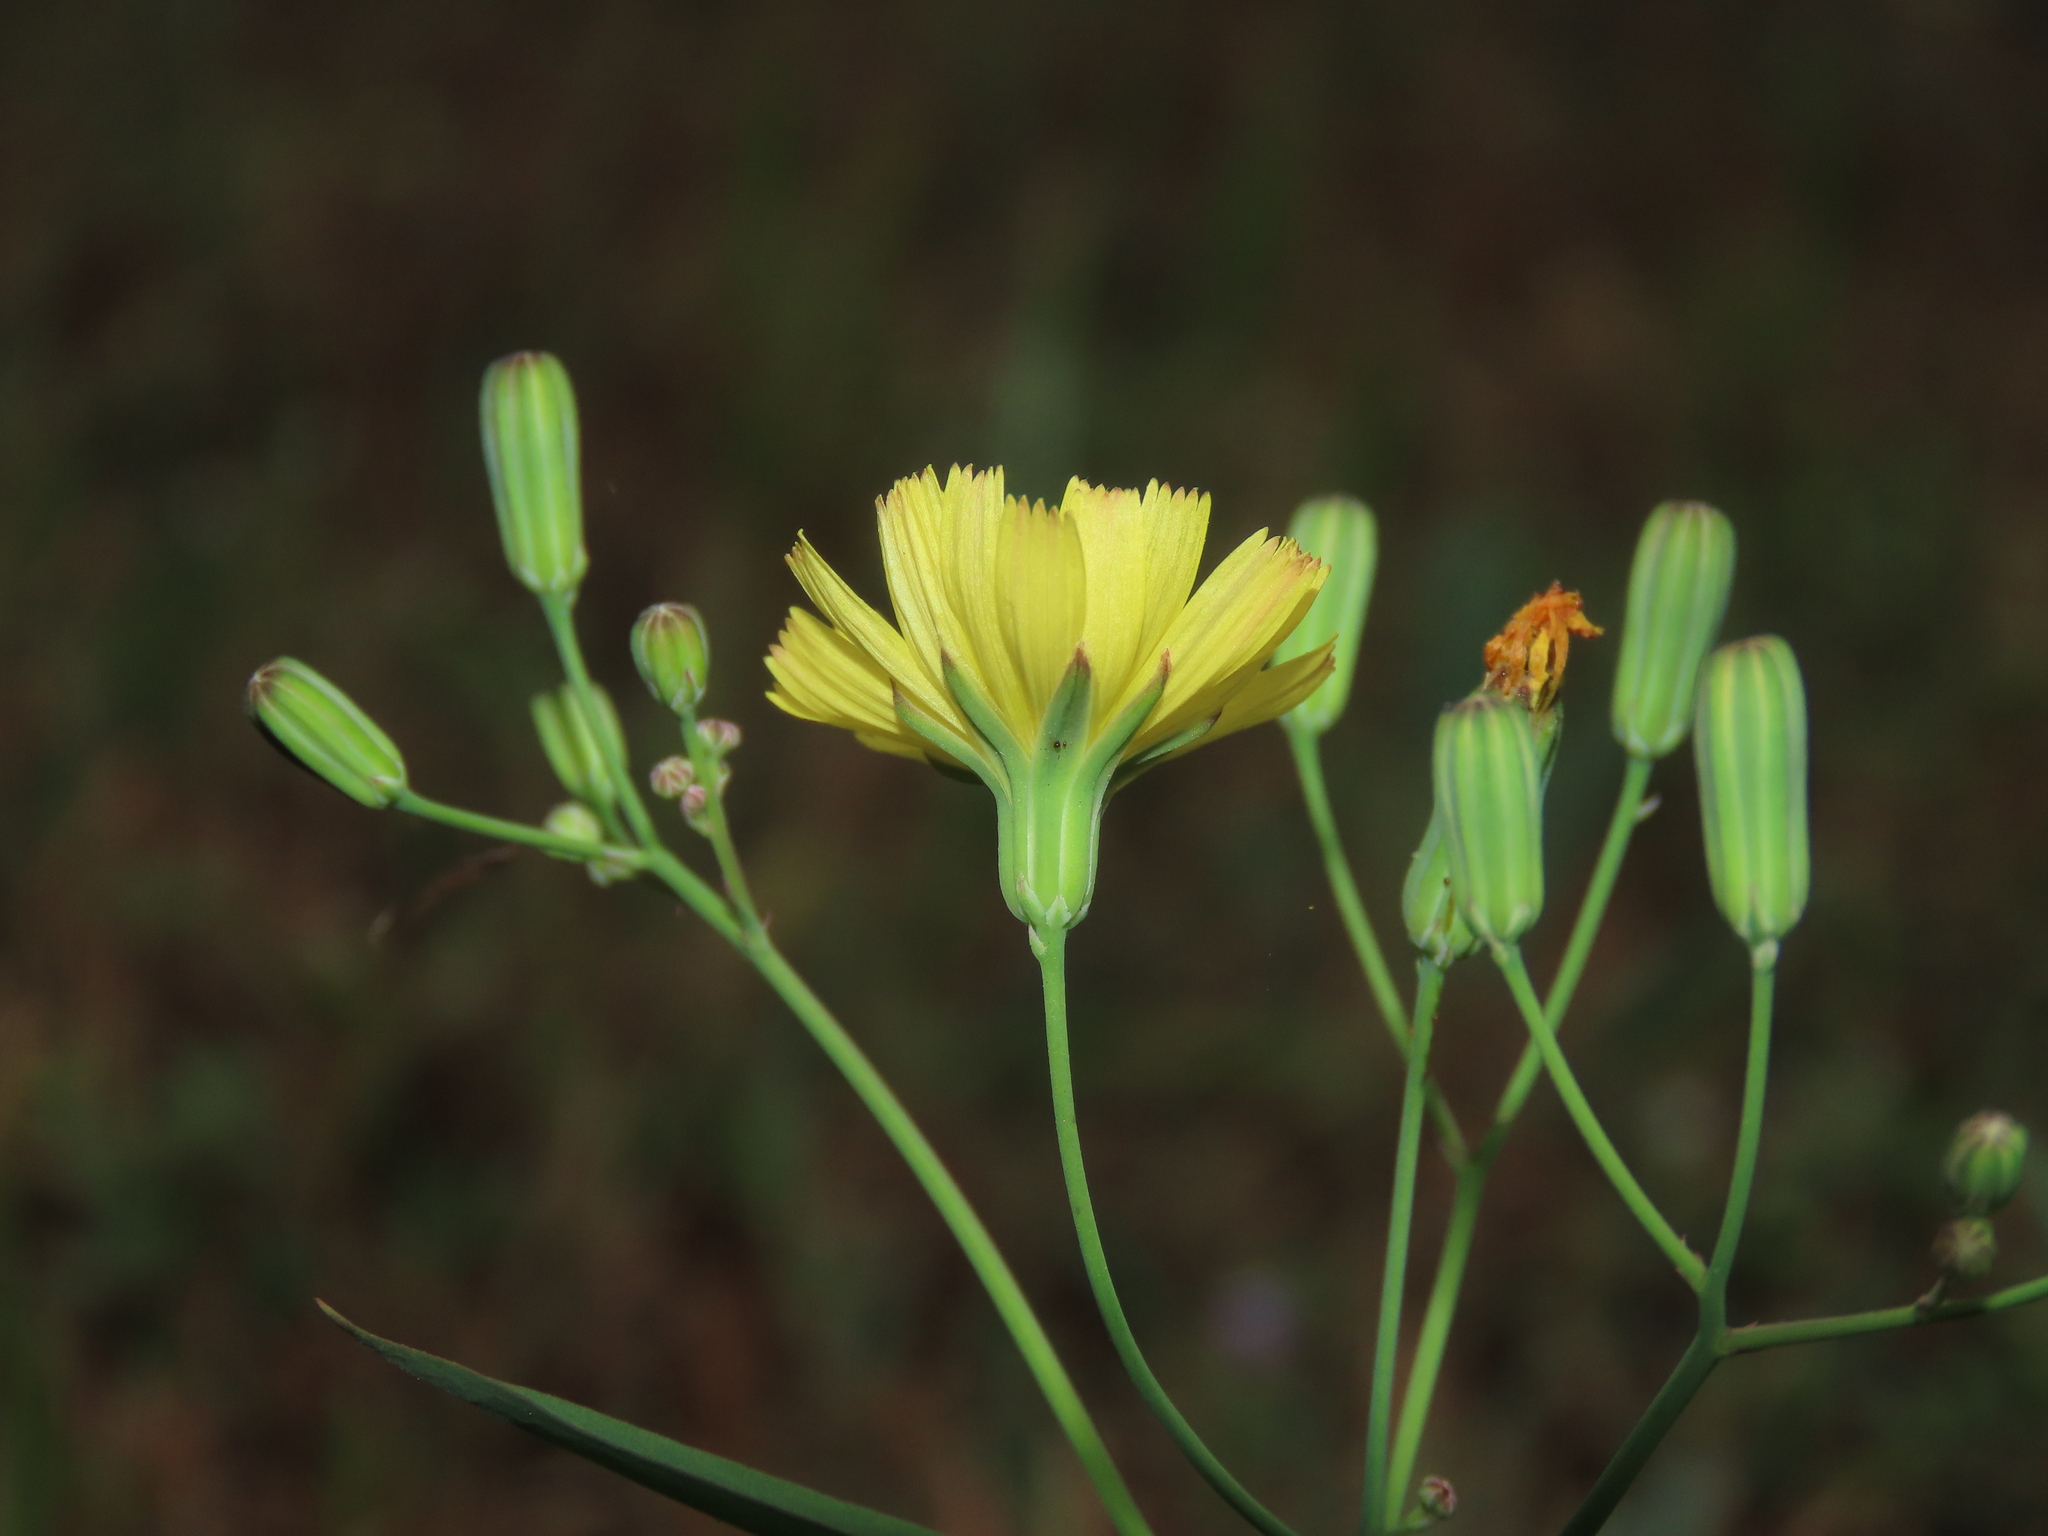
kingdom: Plantae
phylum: Tracheophyta
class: Magnoliopsida
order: Asterales
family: Asteraceae
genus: Ixeris
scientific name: Ixeris chinensis
